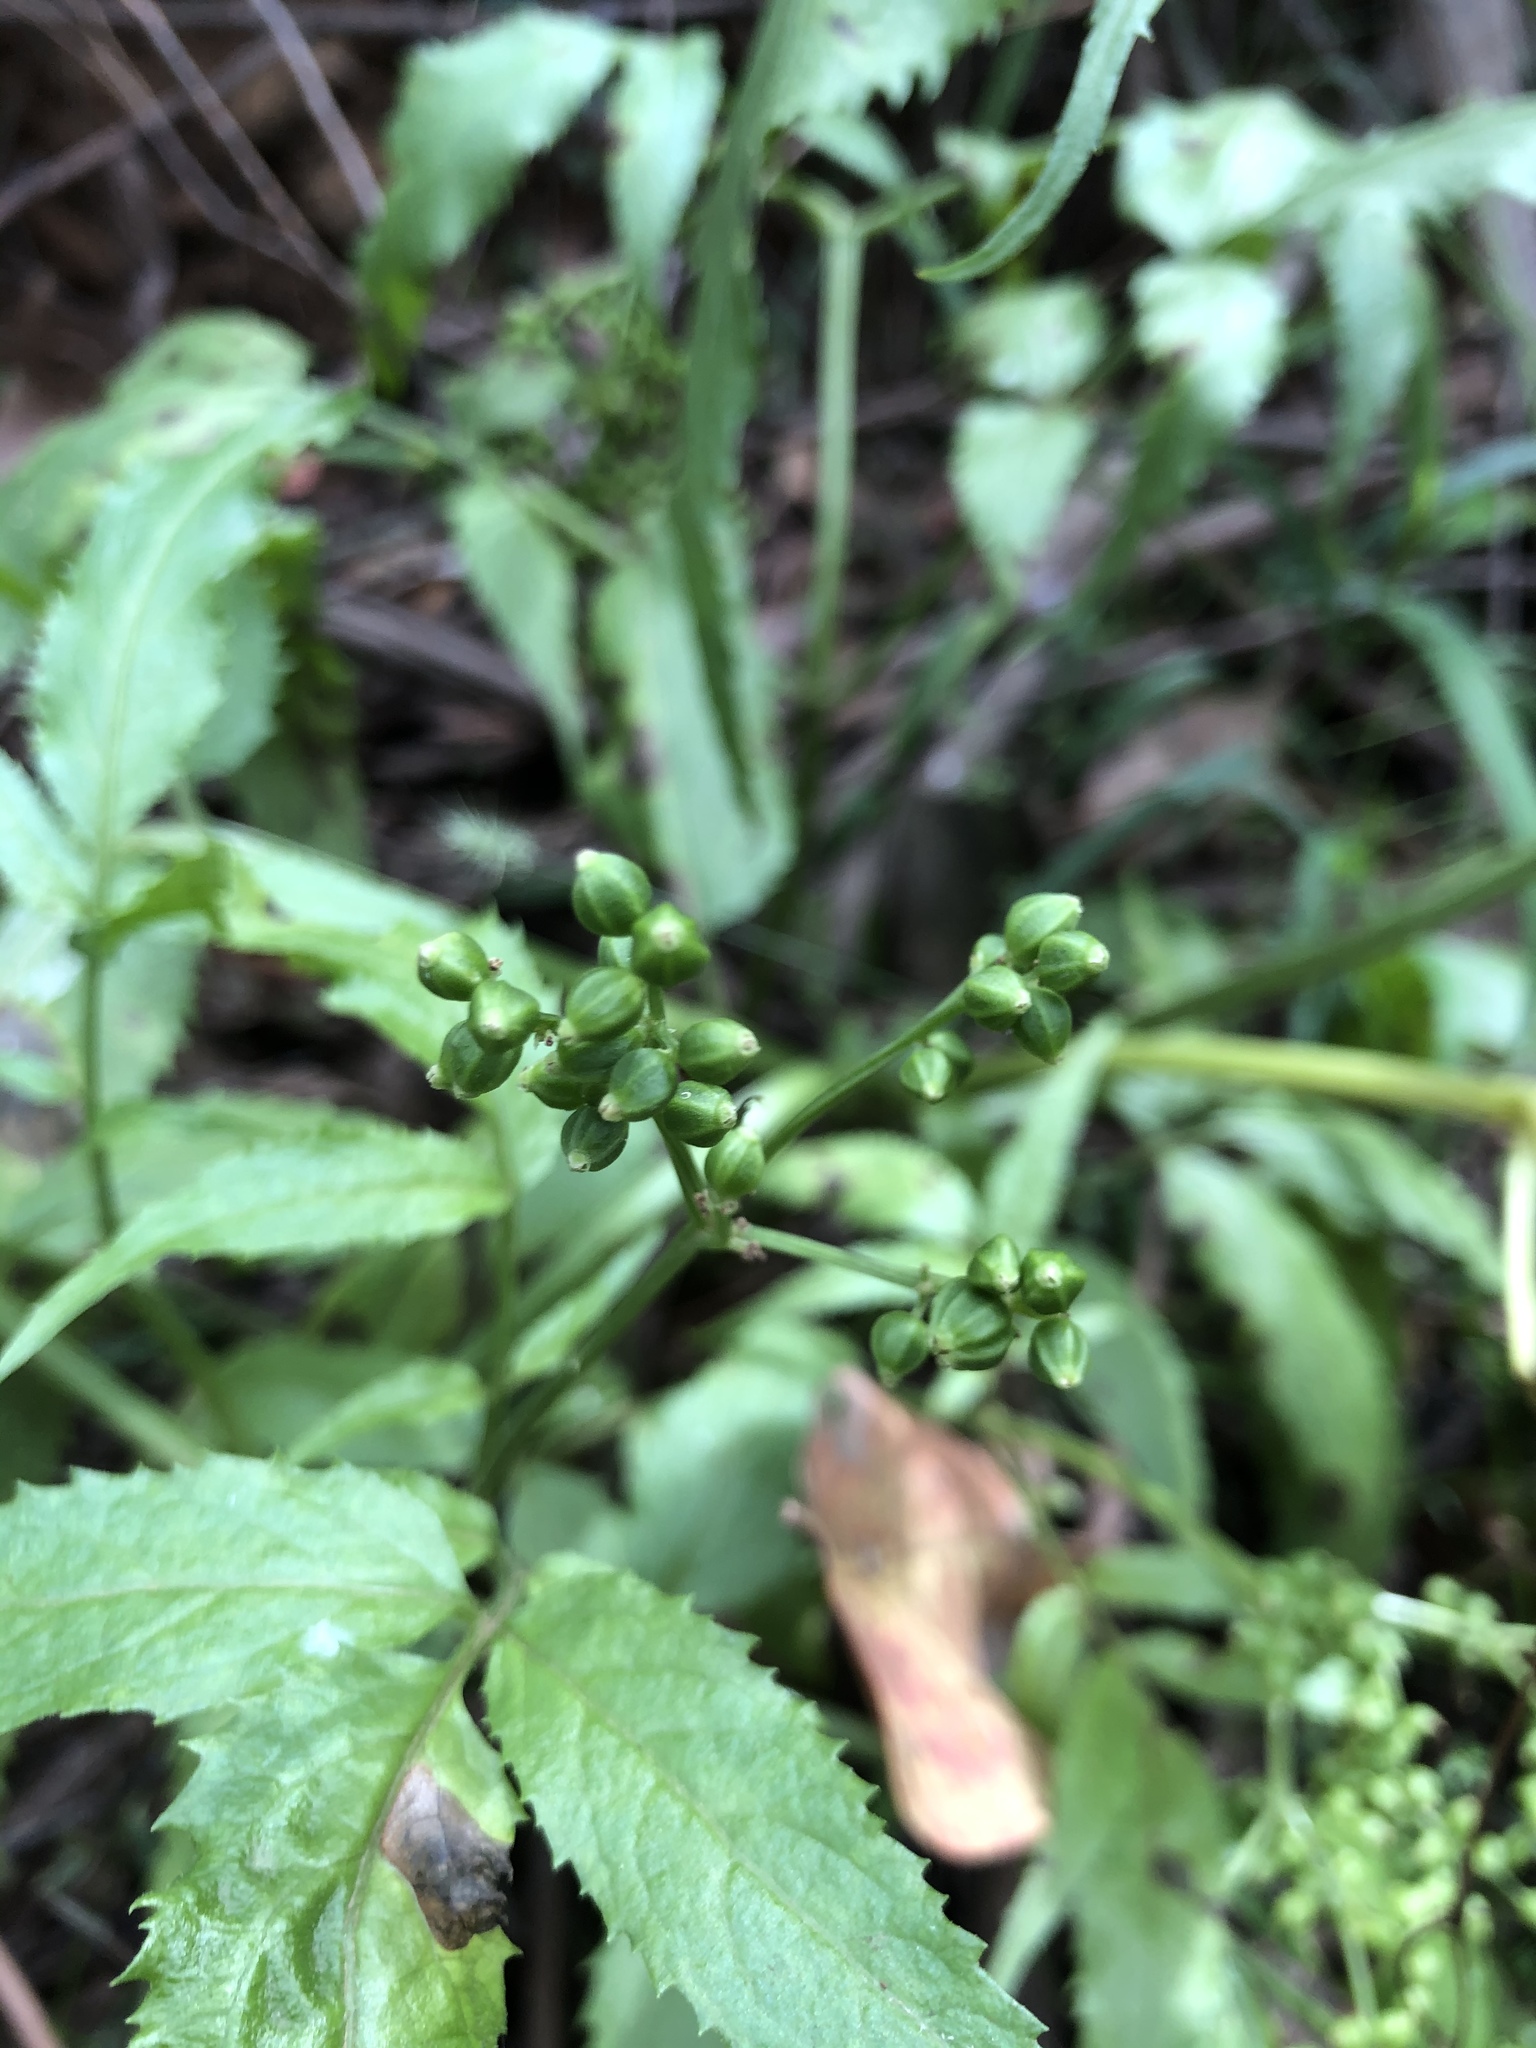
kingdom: Plantae
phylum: Tracheophyta
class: Magnoliopsida
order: Dipsacales
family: Viburnaceae
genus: Sambucus
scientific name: Sambucus gaudichaudiana
